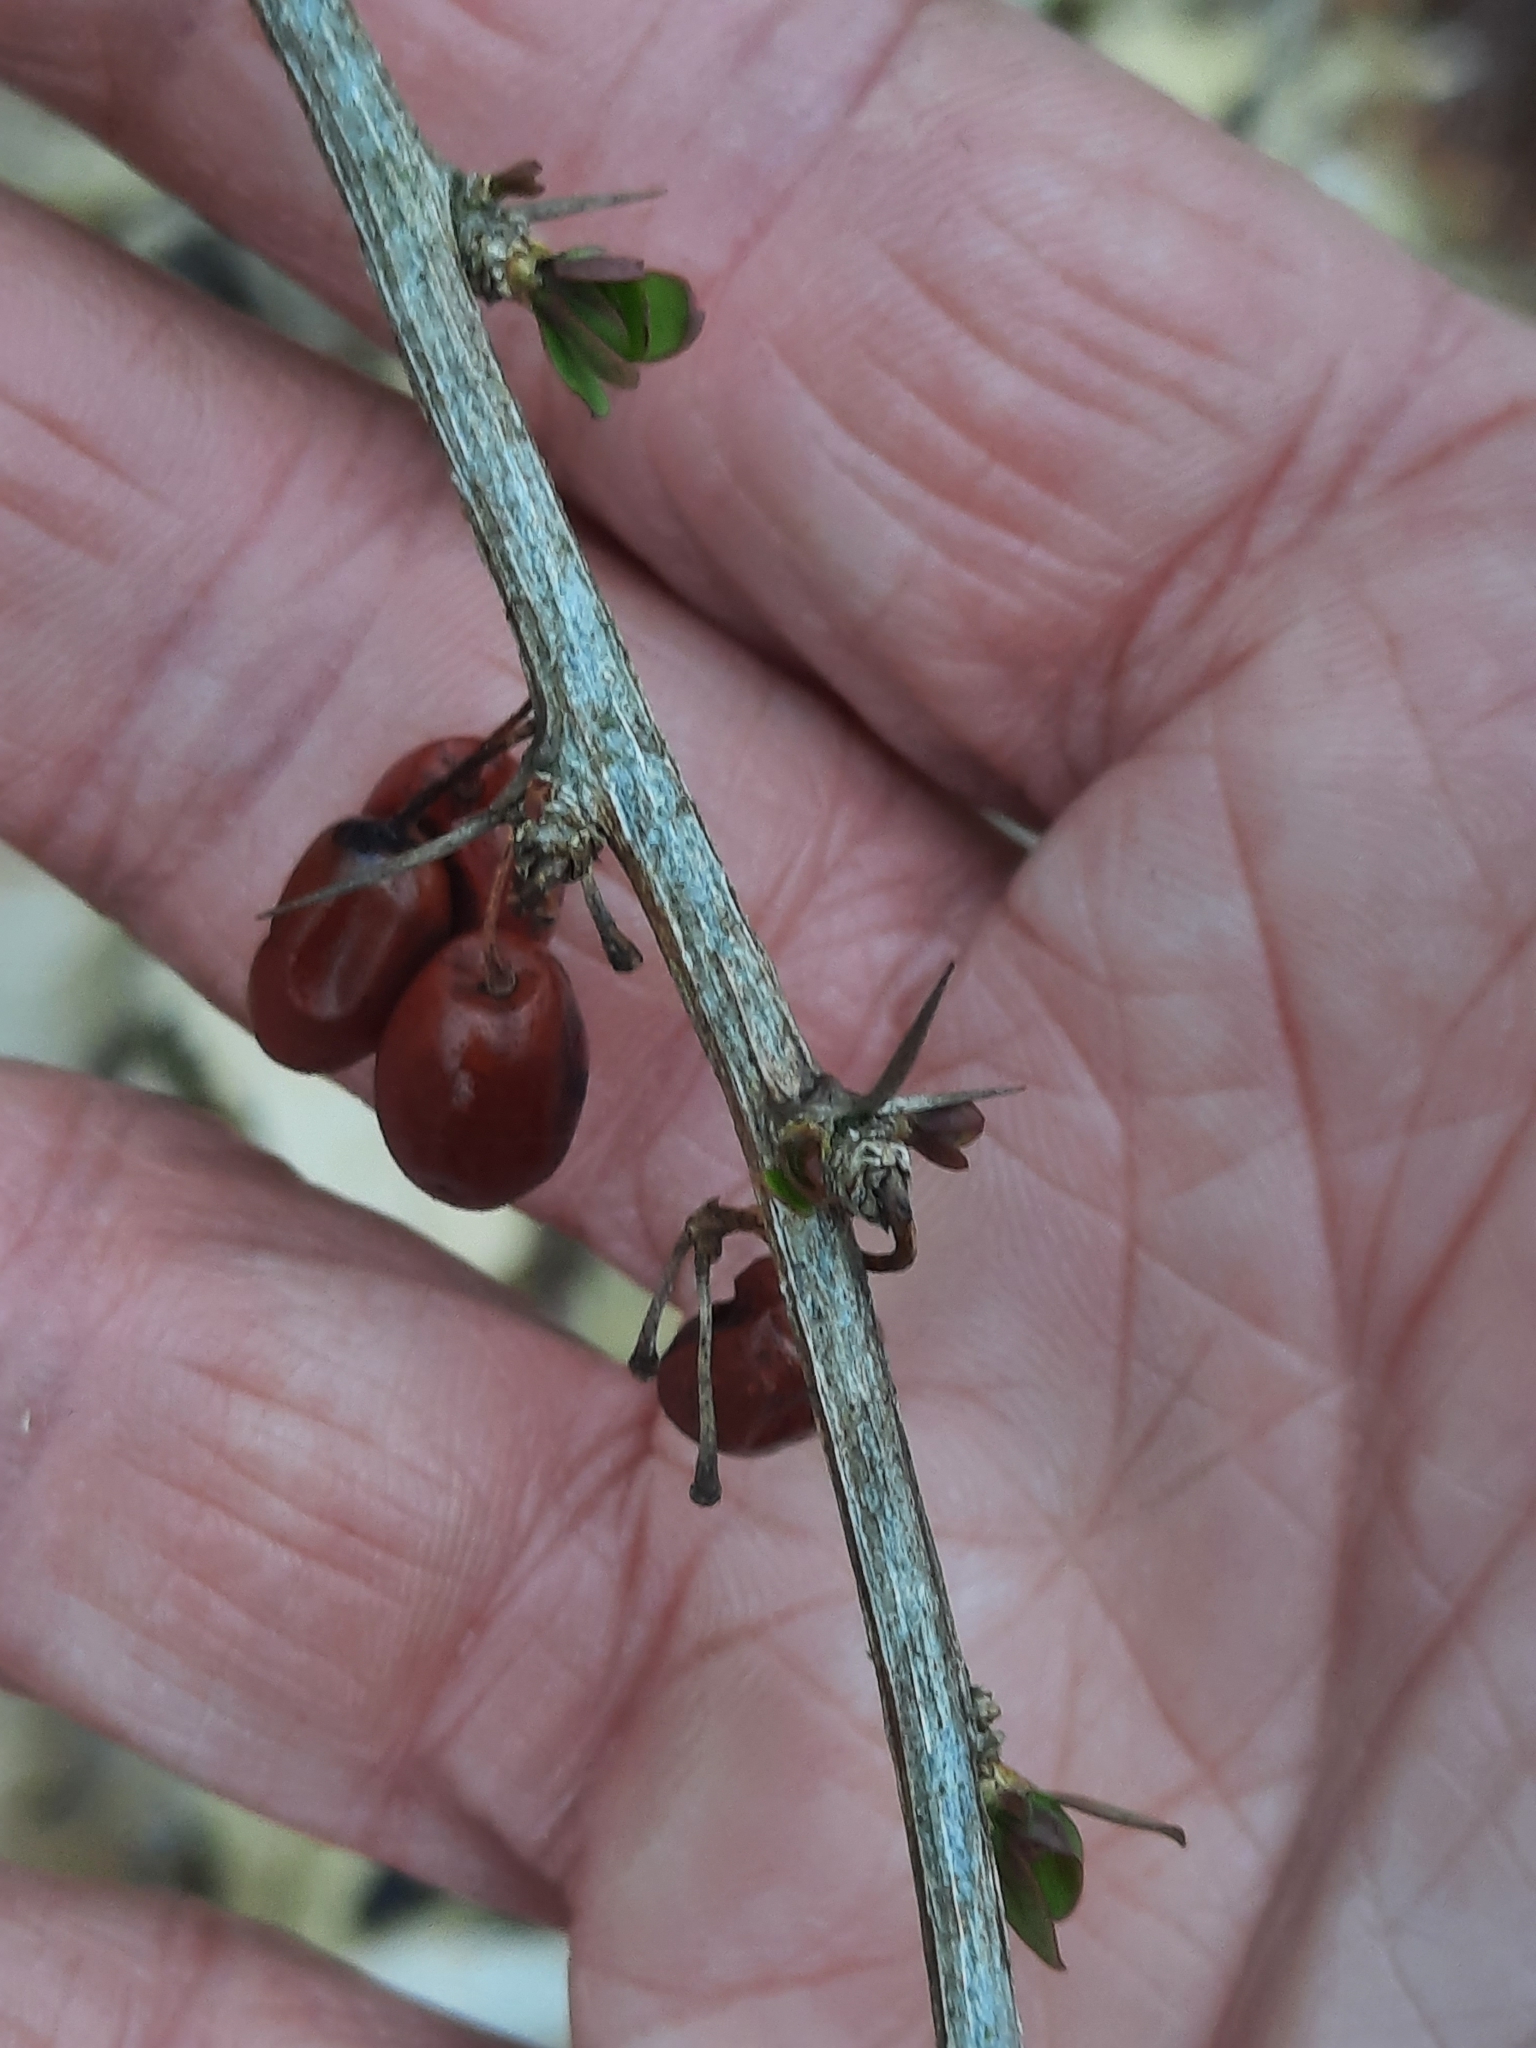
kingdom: Plantae
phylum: Tracheophyta
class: Magnoliopsida
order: Ranunculales
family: Berberidaceae
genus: Berberis
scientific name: Berberis thunbergii
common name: Japanese barberry
